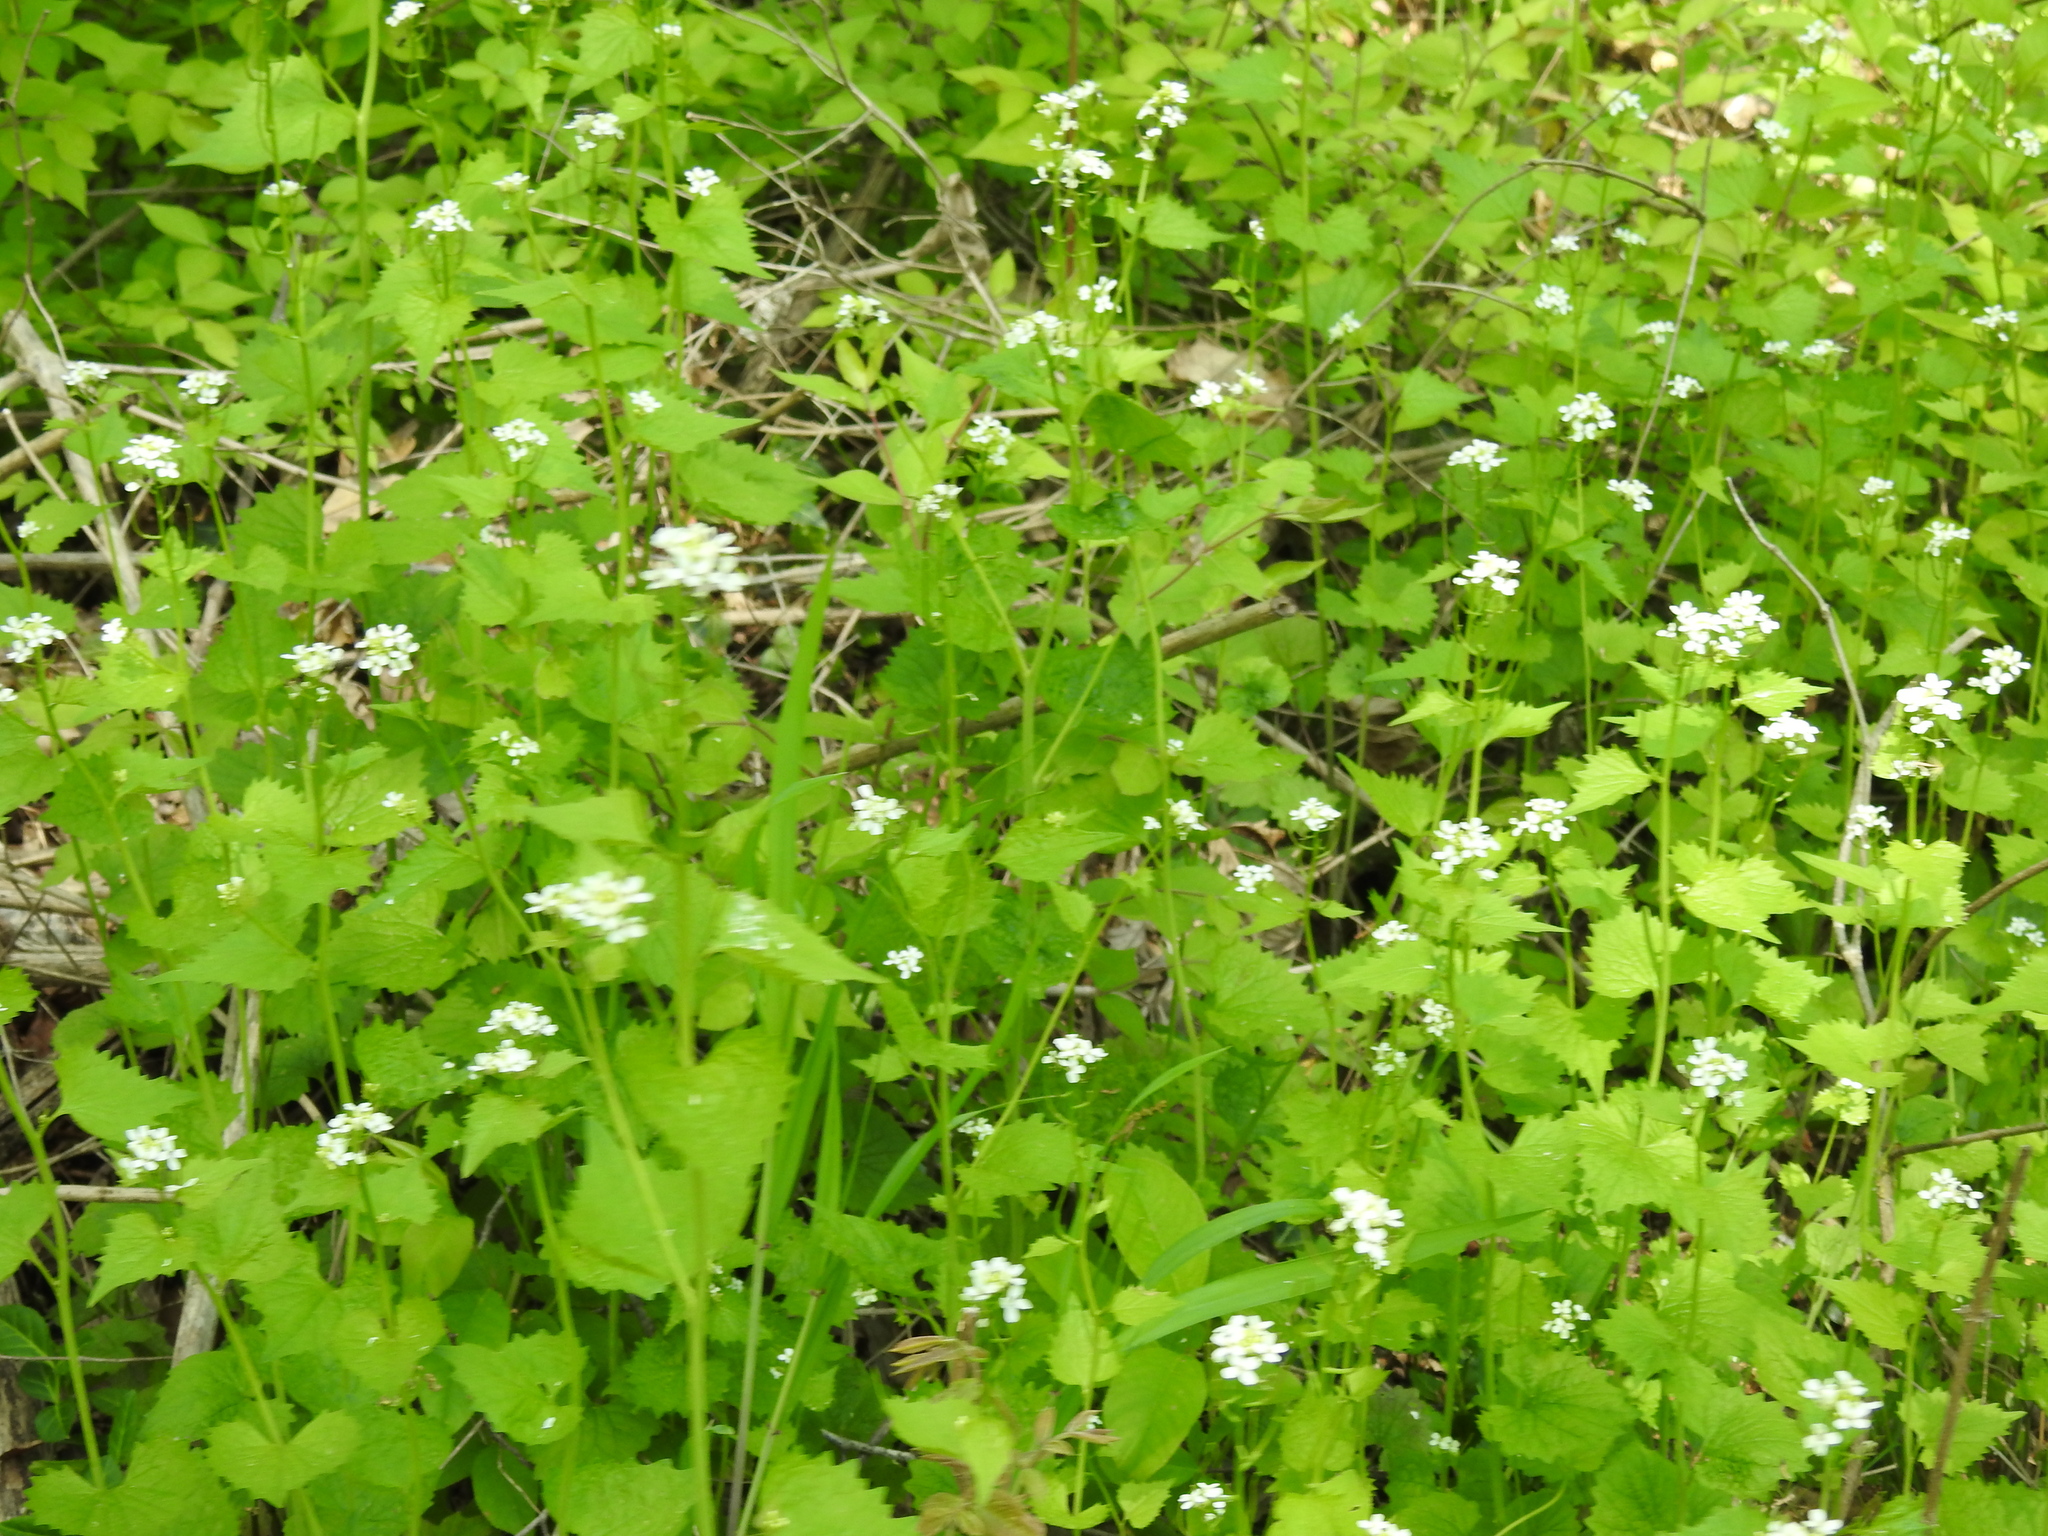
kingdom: Plantae
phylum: Tracheophyta
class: Magnoliopsida
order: Brassicales
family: Brassicaceae
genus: Alliaria
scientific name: Alliaria petiolata
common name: Garlic mustard
